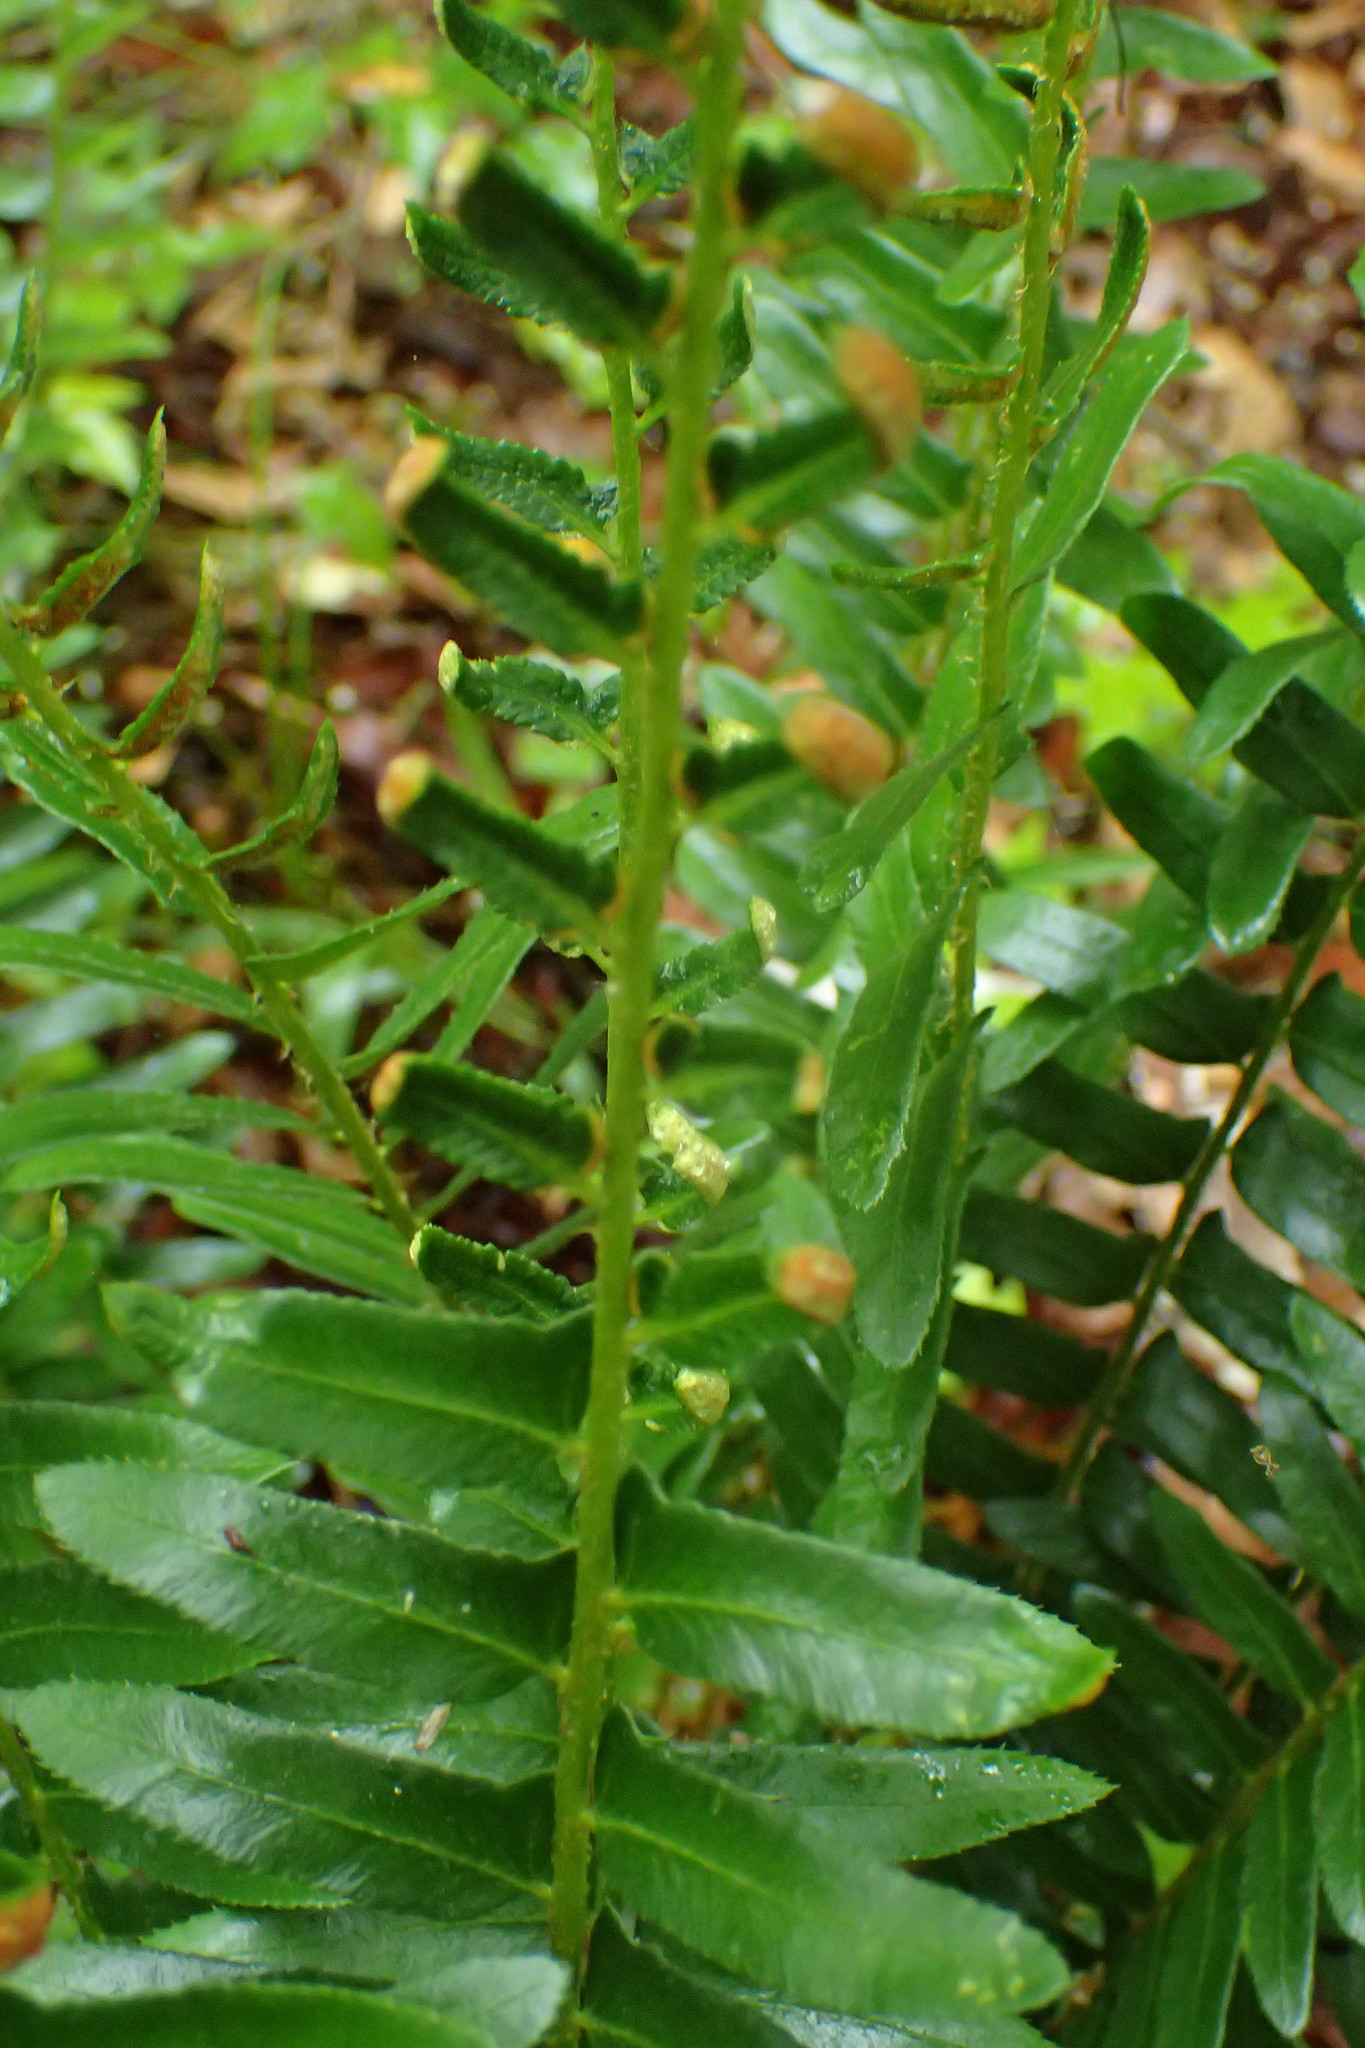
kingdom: Plantae
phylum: Tracheophyta
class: Polypodiopsida
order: Polypodiales
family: Dryopteridaceae
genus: Polystichum
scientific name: Polystichum acrostichoides
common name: Christmas fern
